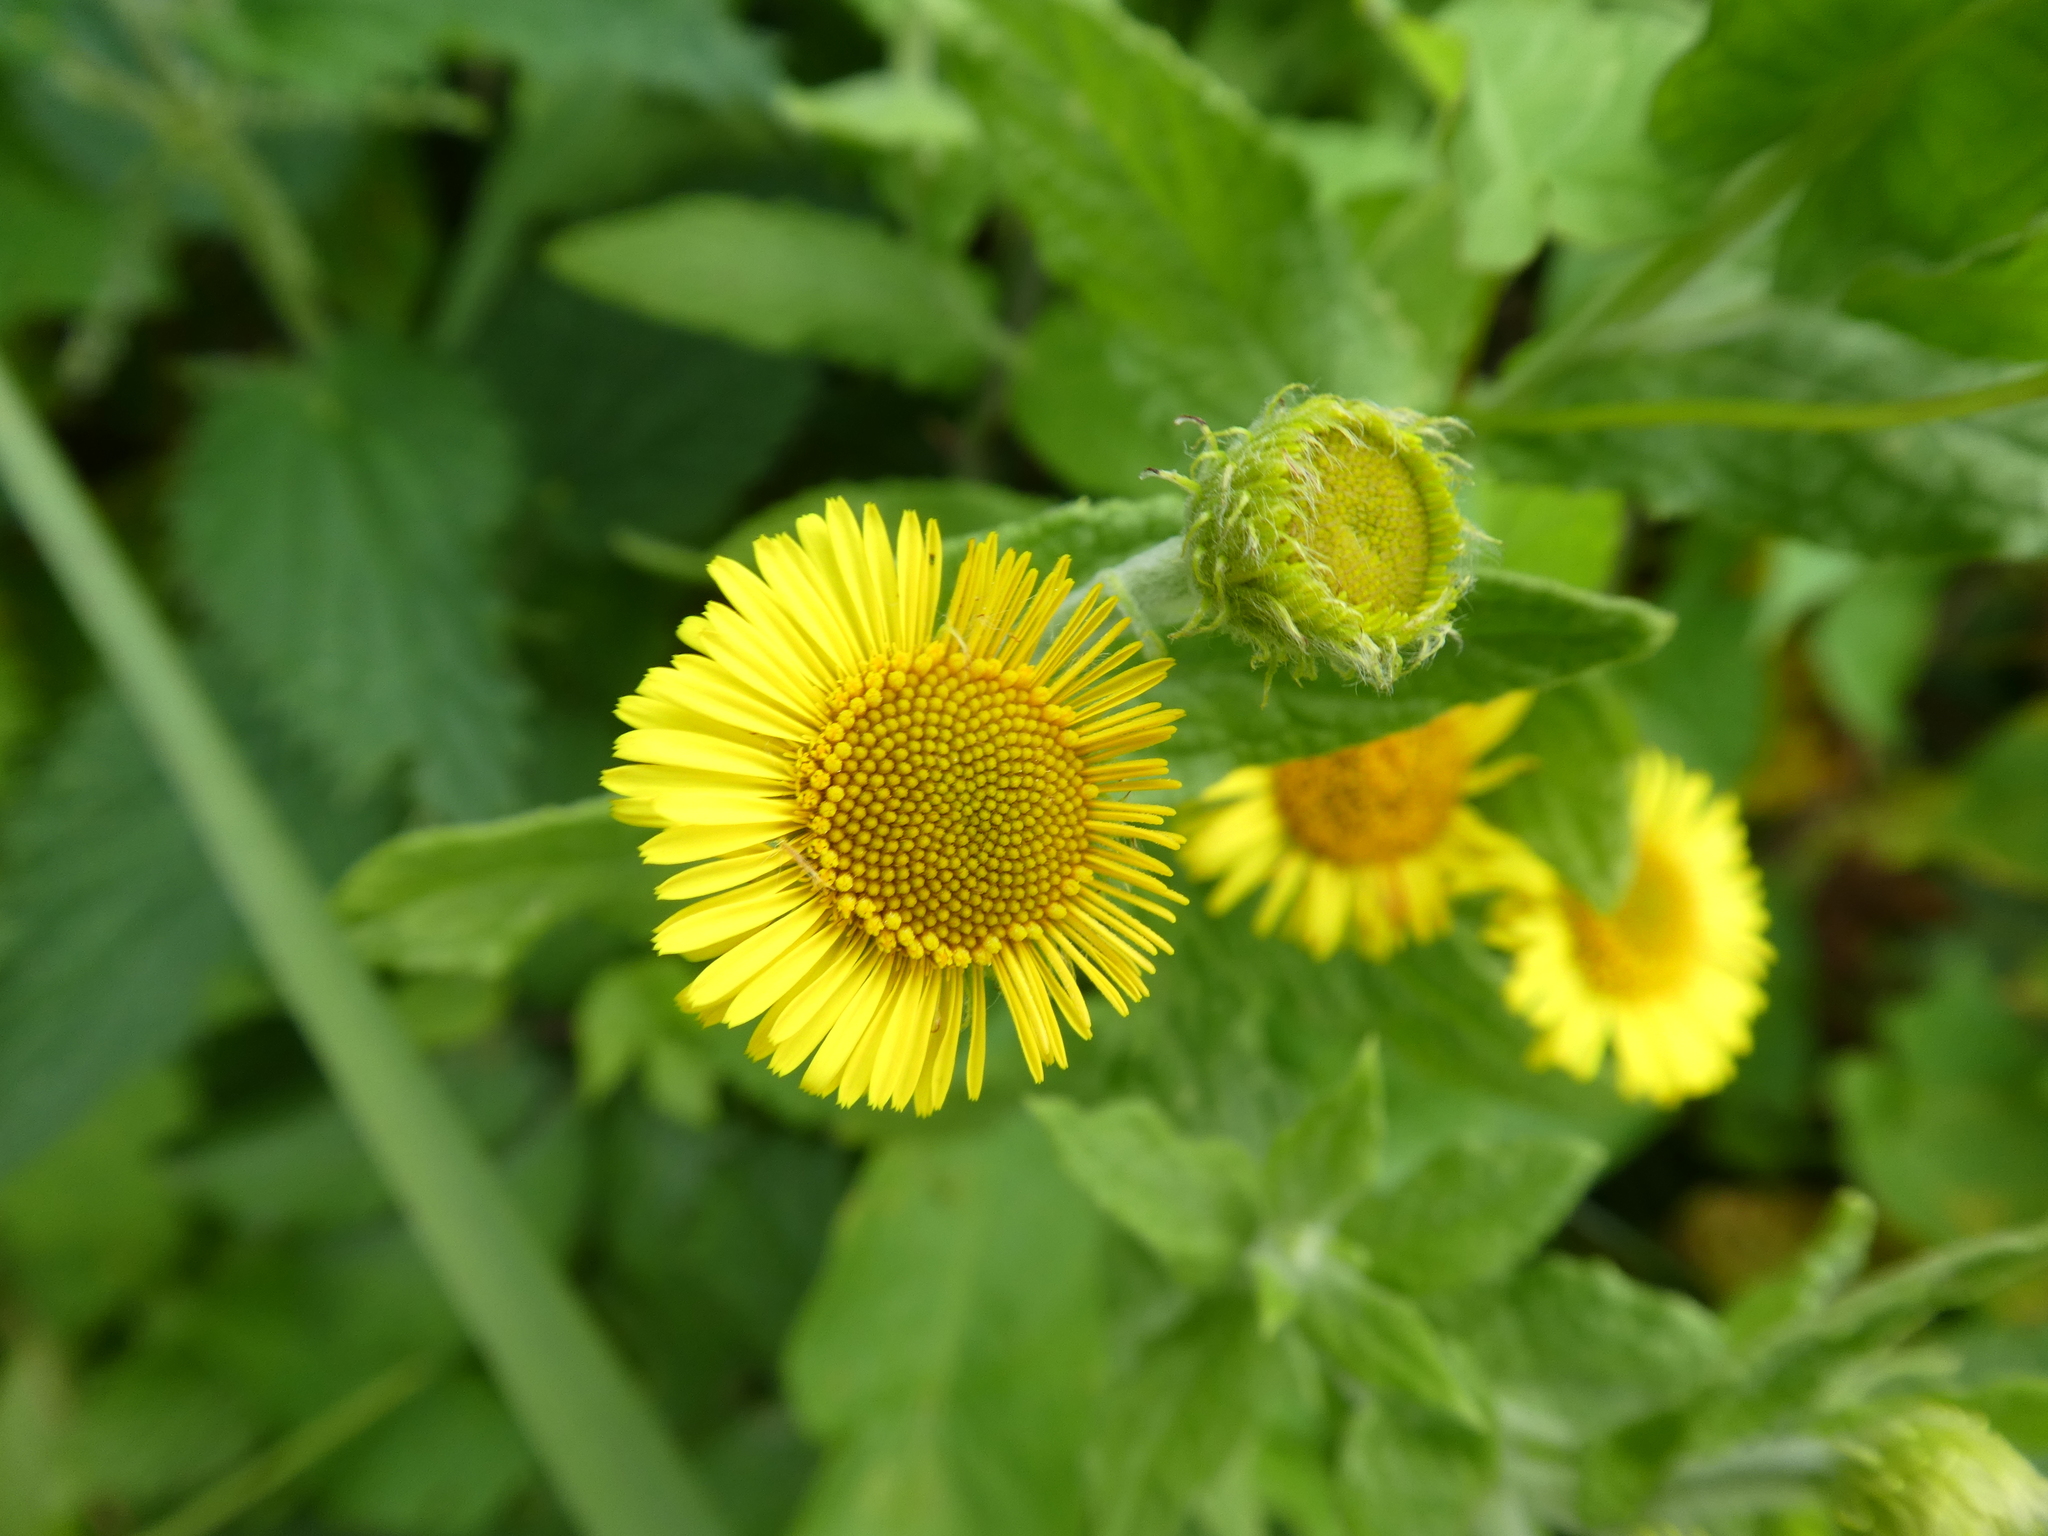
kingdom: Plantae
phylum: Tracheophyta
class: Magnoliopsida
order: Asterales
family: Asteraceae
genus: Pulicaria
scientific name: Pulicaria dysenterica
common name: Common fleabane
